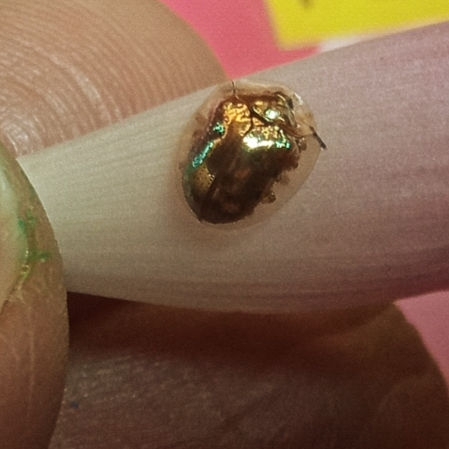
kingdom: Animalia
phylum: Arthropoda
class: Insecta
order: Coleoptera
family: Chrysomelidae
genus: Charidotella
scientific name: Charidotella sexpunctata
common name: Golden tortoise beetle
